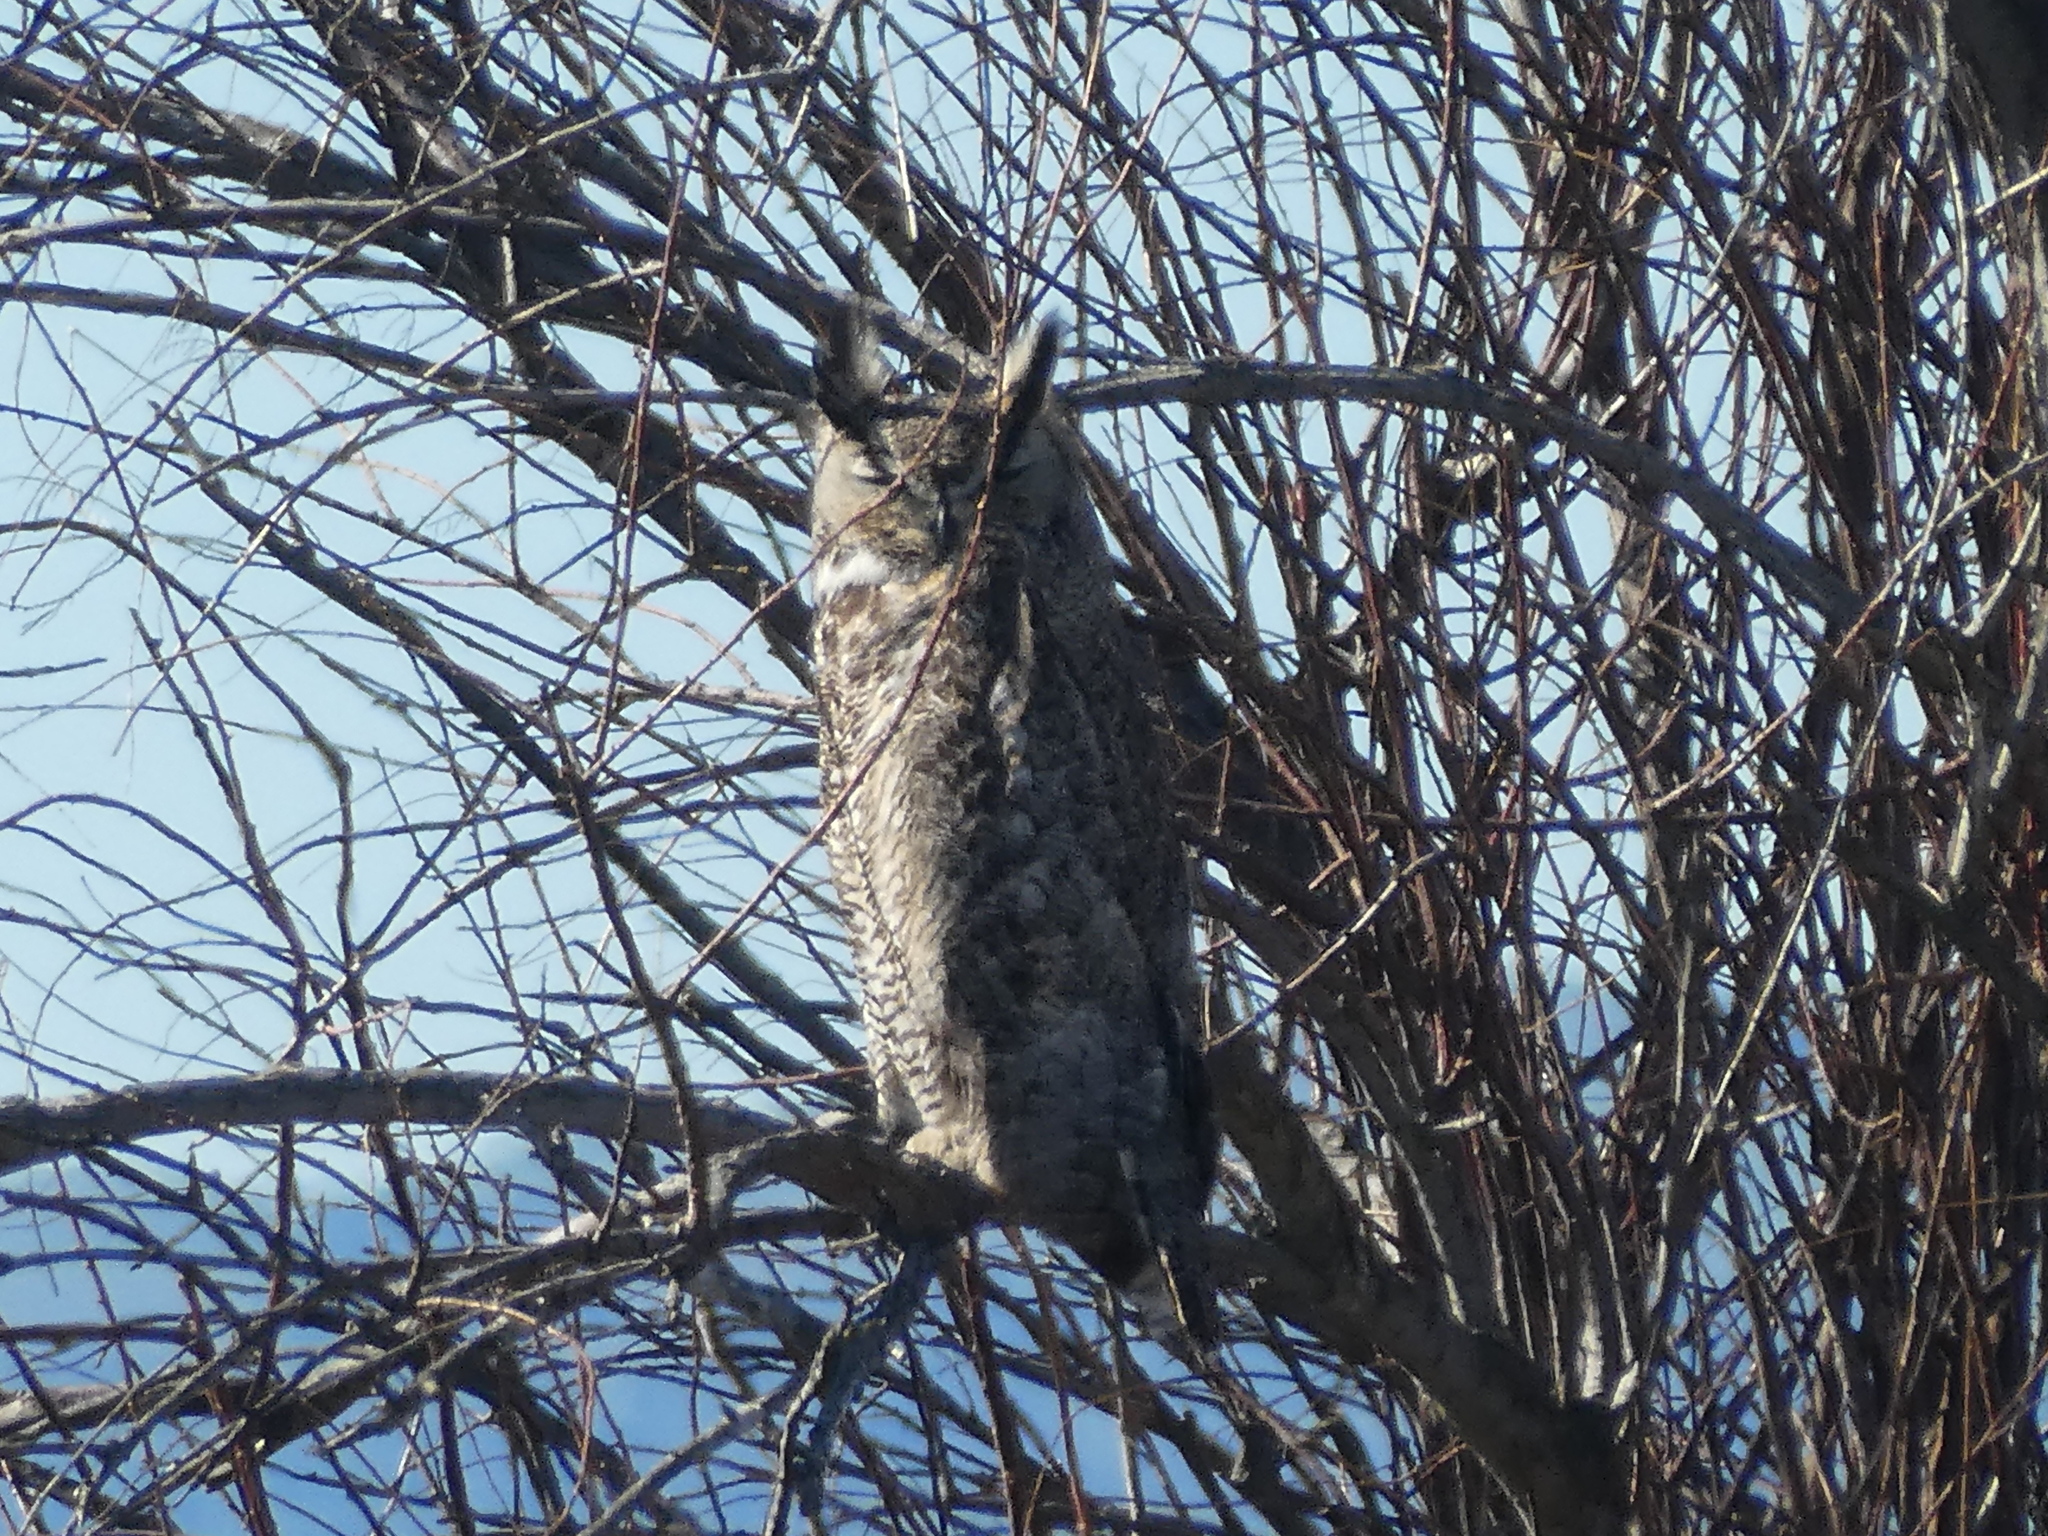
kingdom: Animalia
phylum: Chordata
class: Aves
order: Strigiformes
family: Strigidae
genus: Bubo
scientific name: Bubo virginianus
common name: Great horned owl
